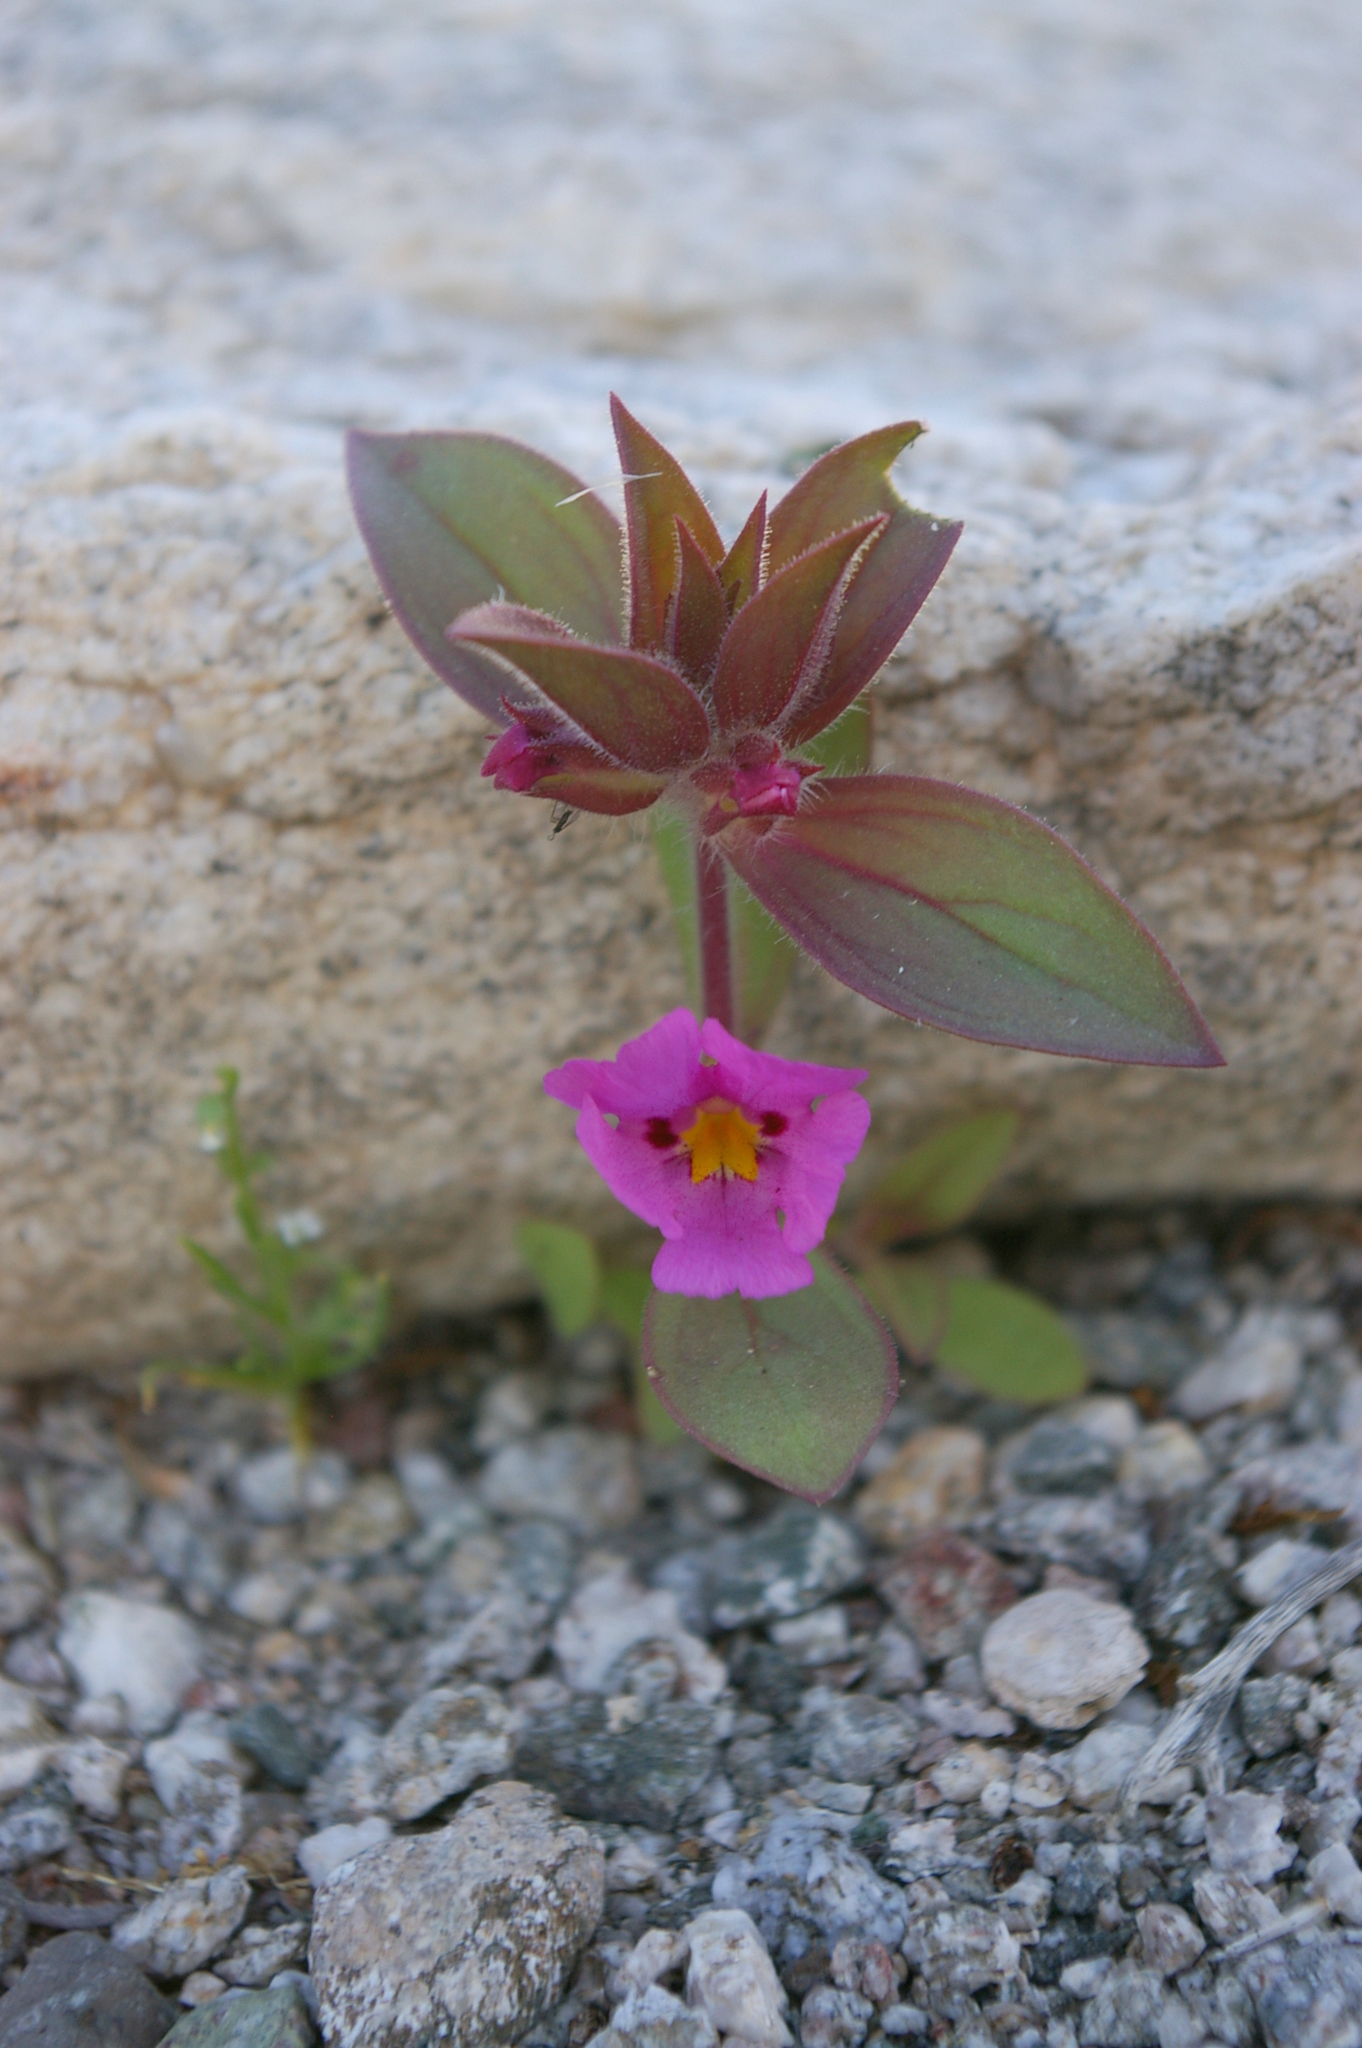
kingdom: Plantae
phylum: Tracheophyta
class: Magnoliopsida
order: Lamiales
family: Phrymaceae
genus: Diplacus
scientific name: Diplacus bigelovii
